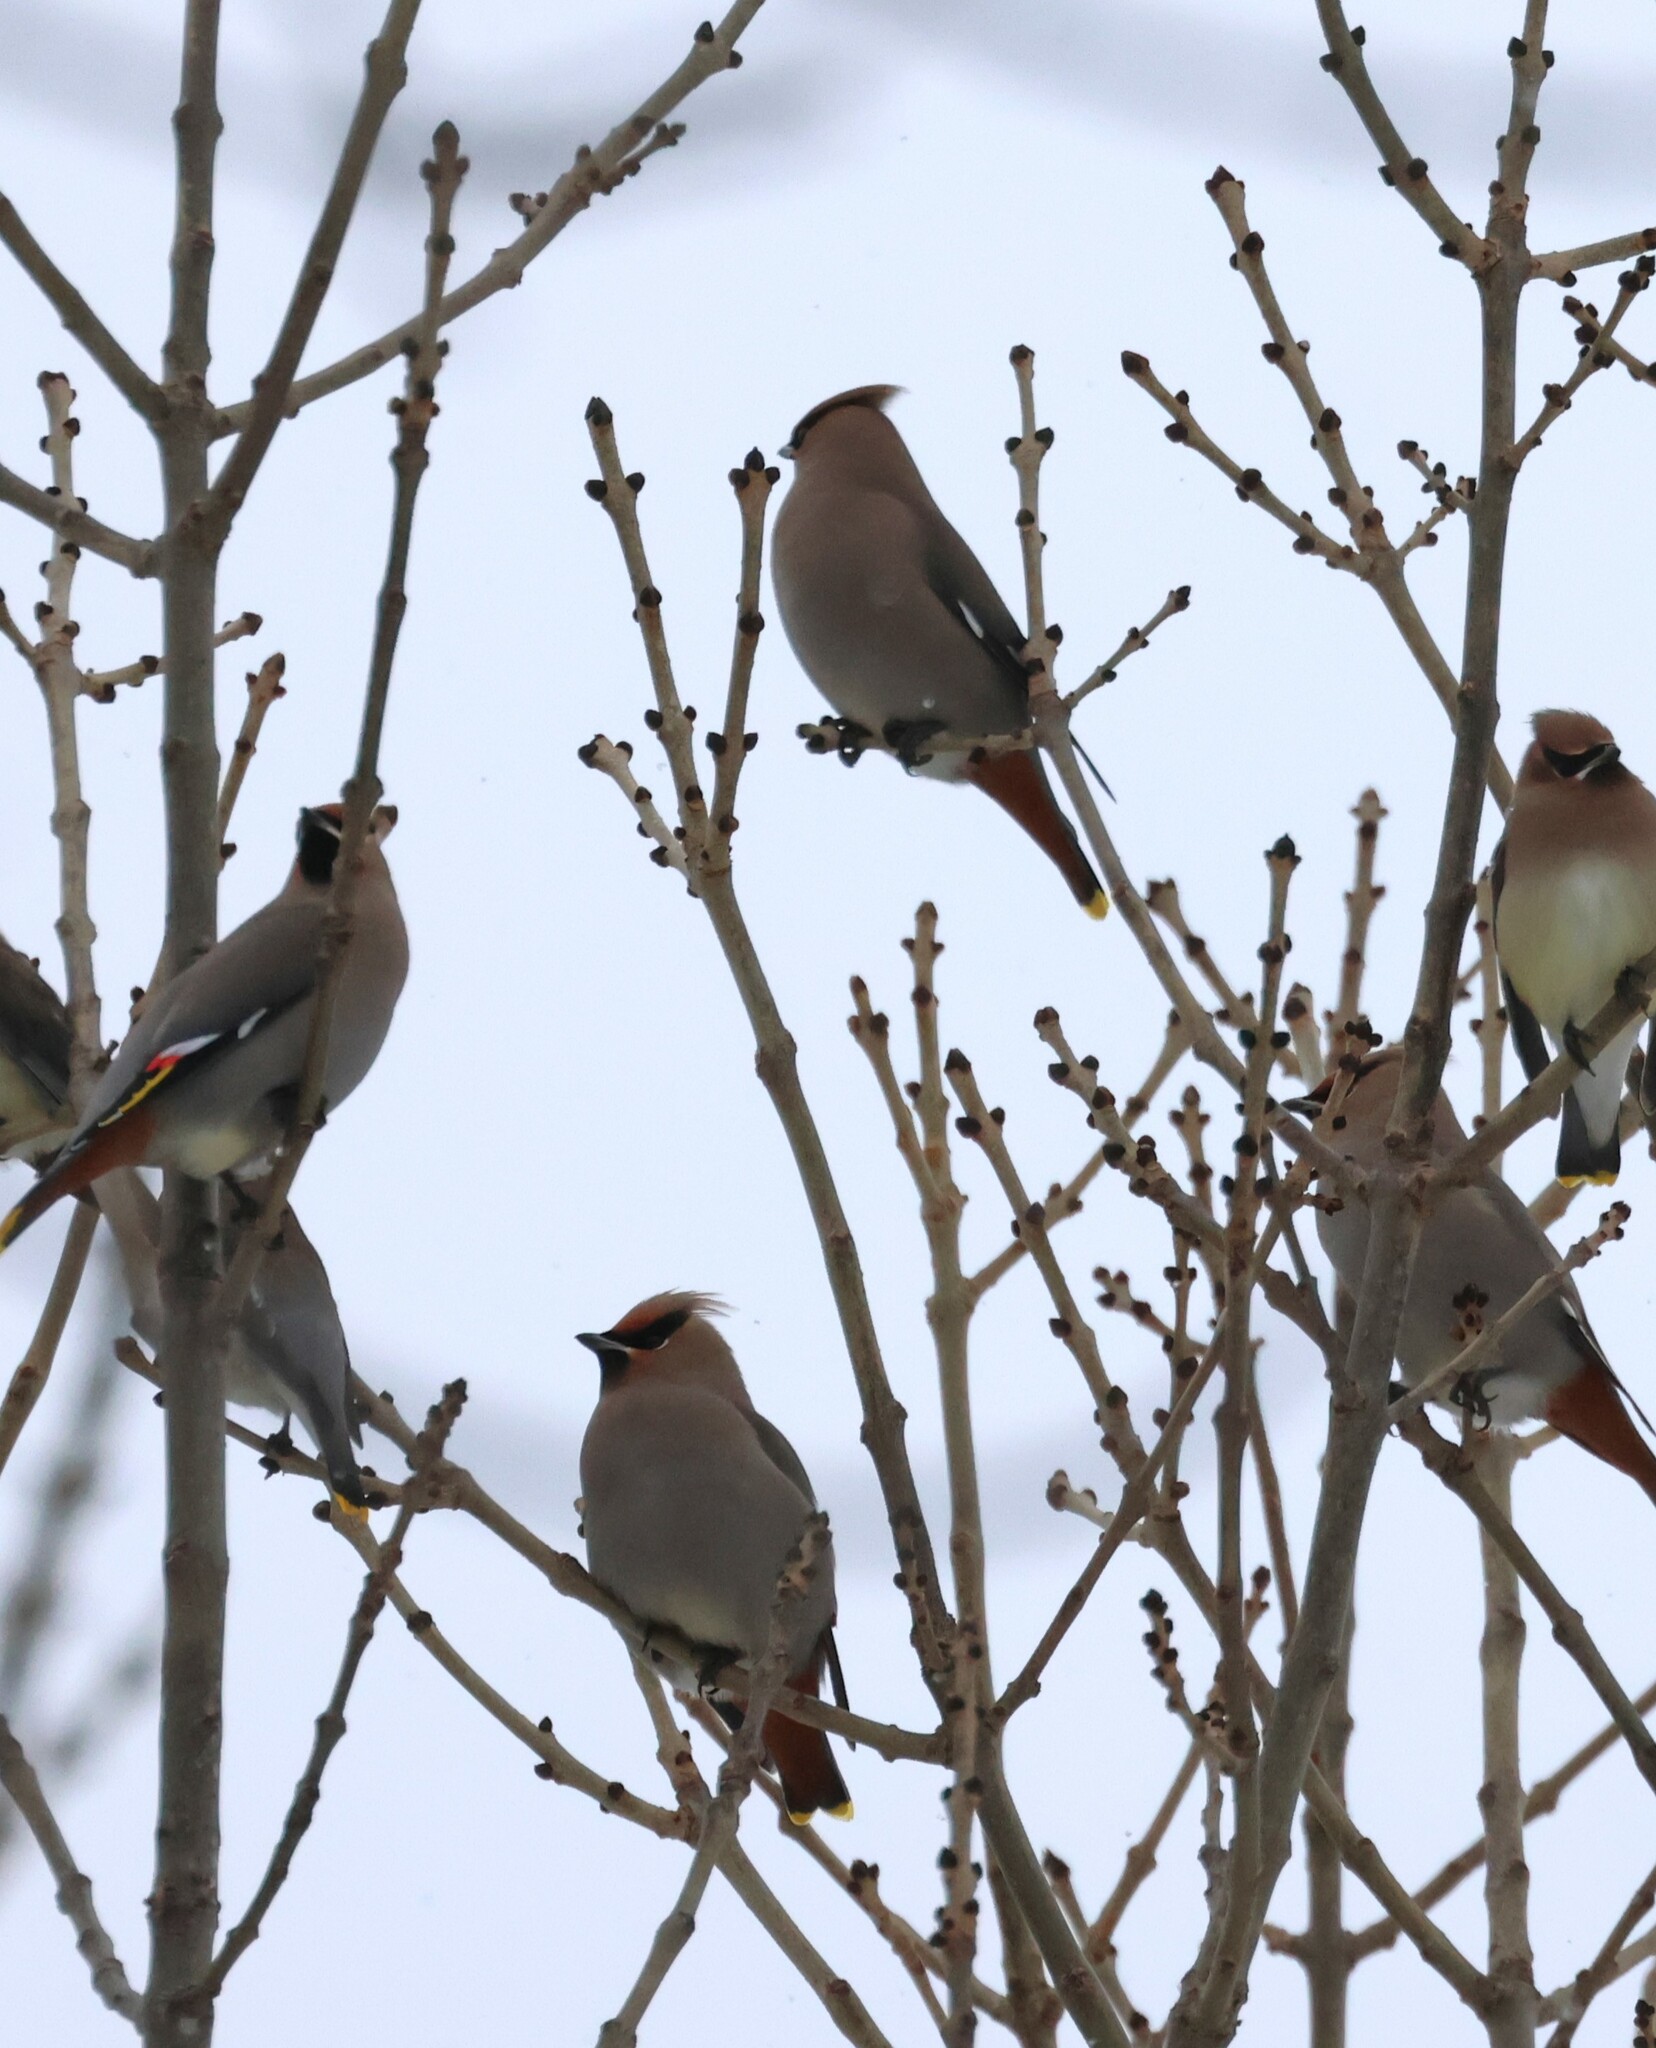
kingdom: Animalia
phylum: Chordata
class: Aves
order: Passeriformes
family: Bombycillidae
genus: Bombycilla
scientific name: Bombycilla garrulus
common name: Bohemian waxwing
